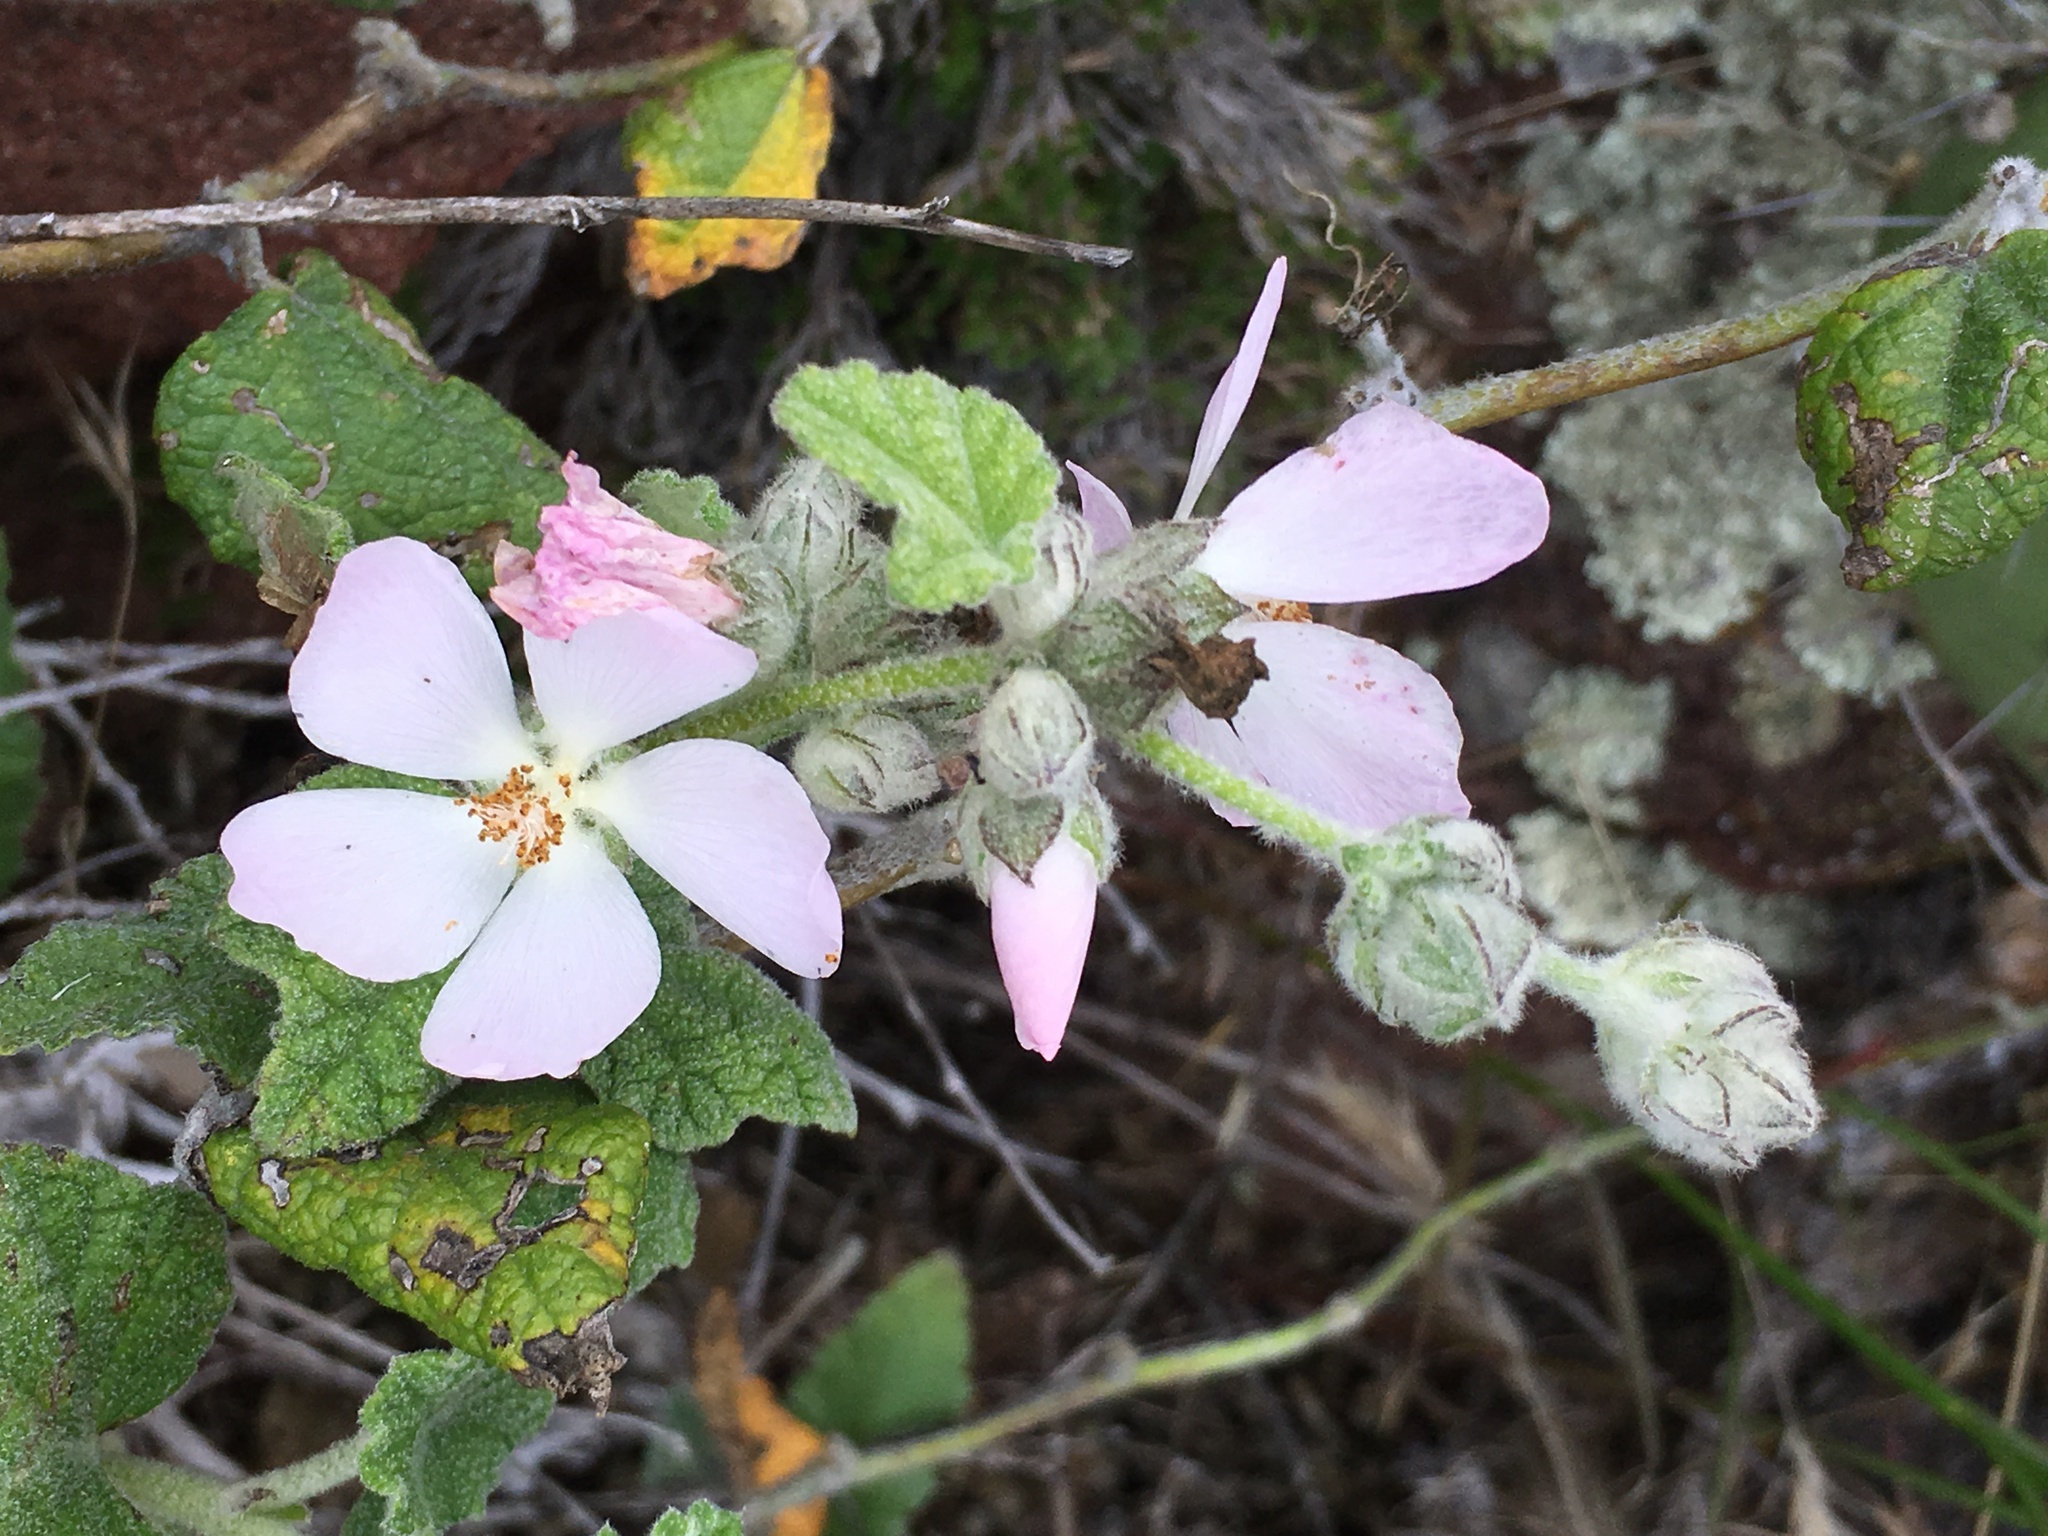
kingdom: Plantae
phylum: Tracheophyta
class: Magnoliopsida
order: Malvales
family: Malvaceae
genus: Malacothamnus
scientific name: Malacothamnus clementinus
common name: San clemente island bush-mallow
